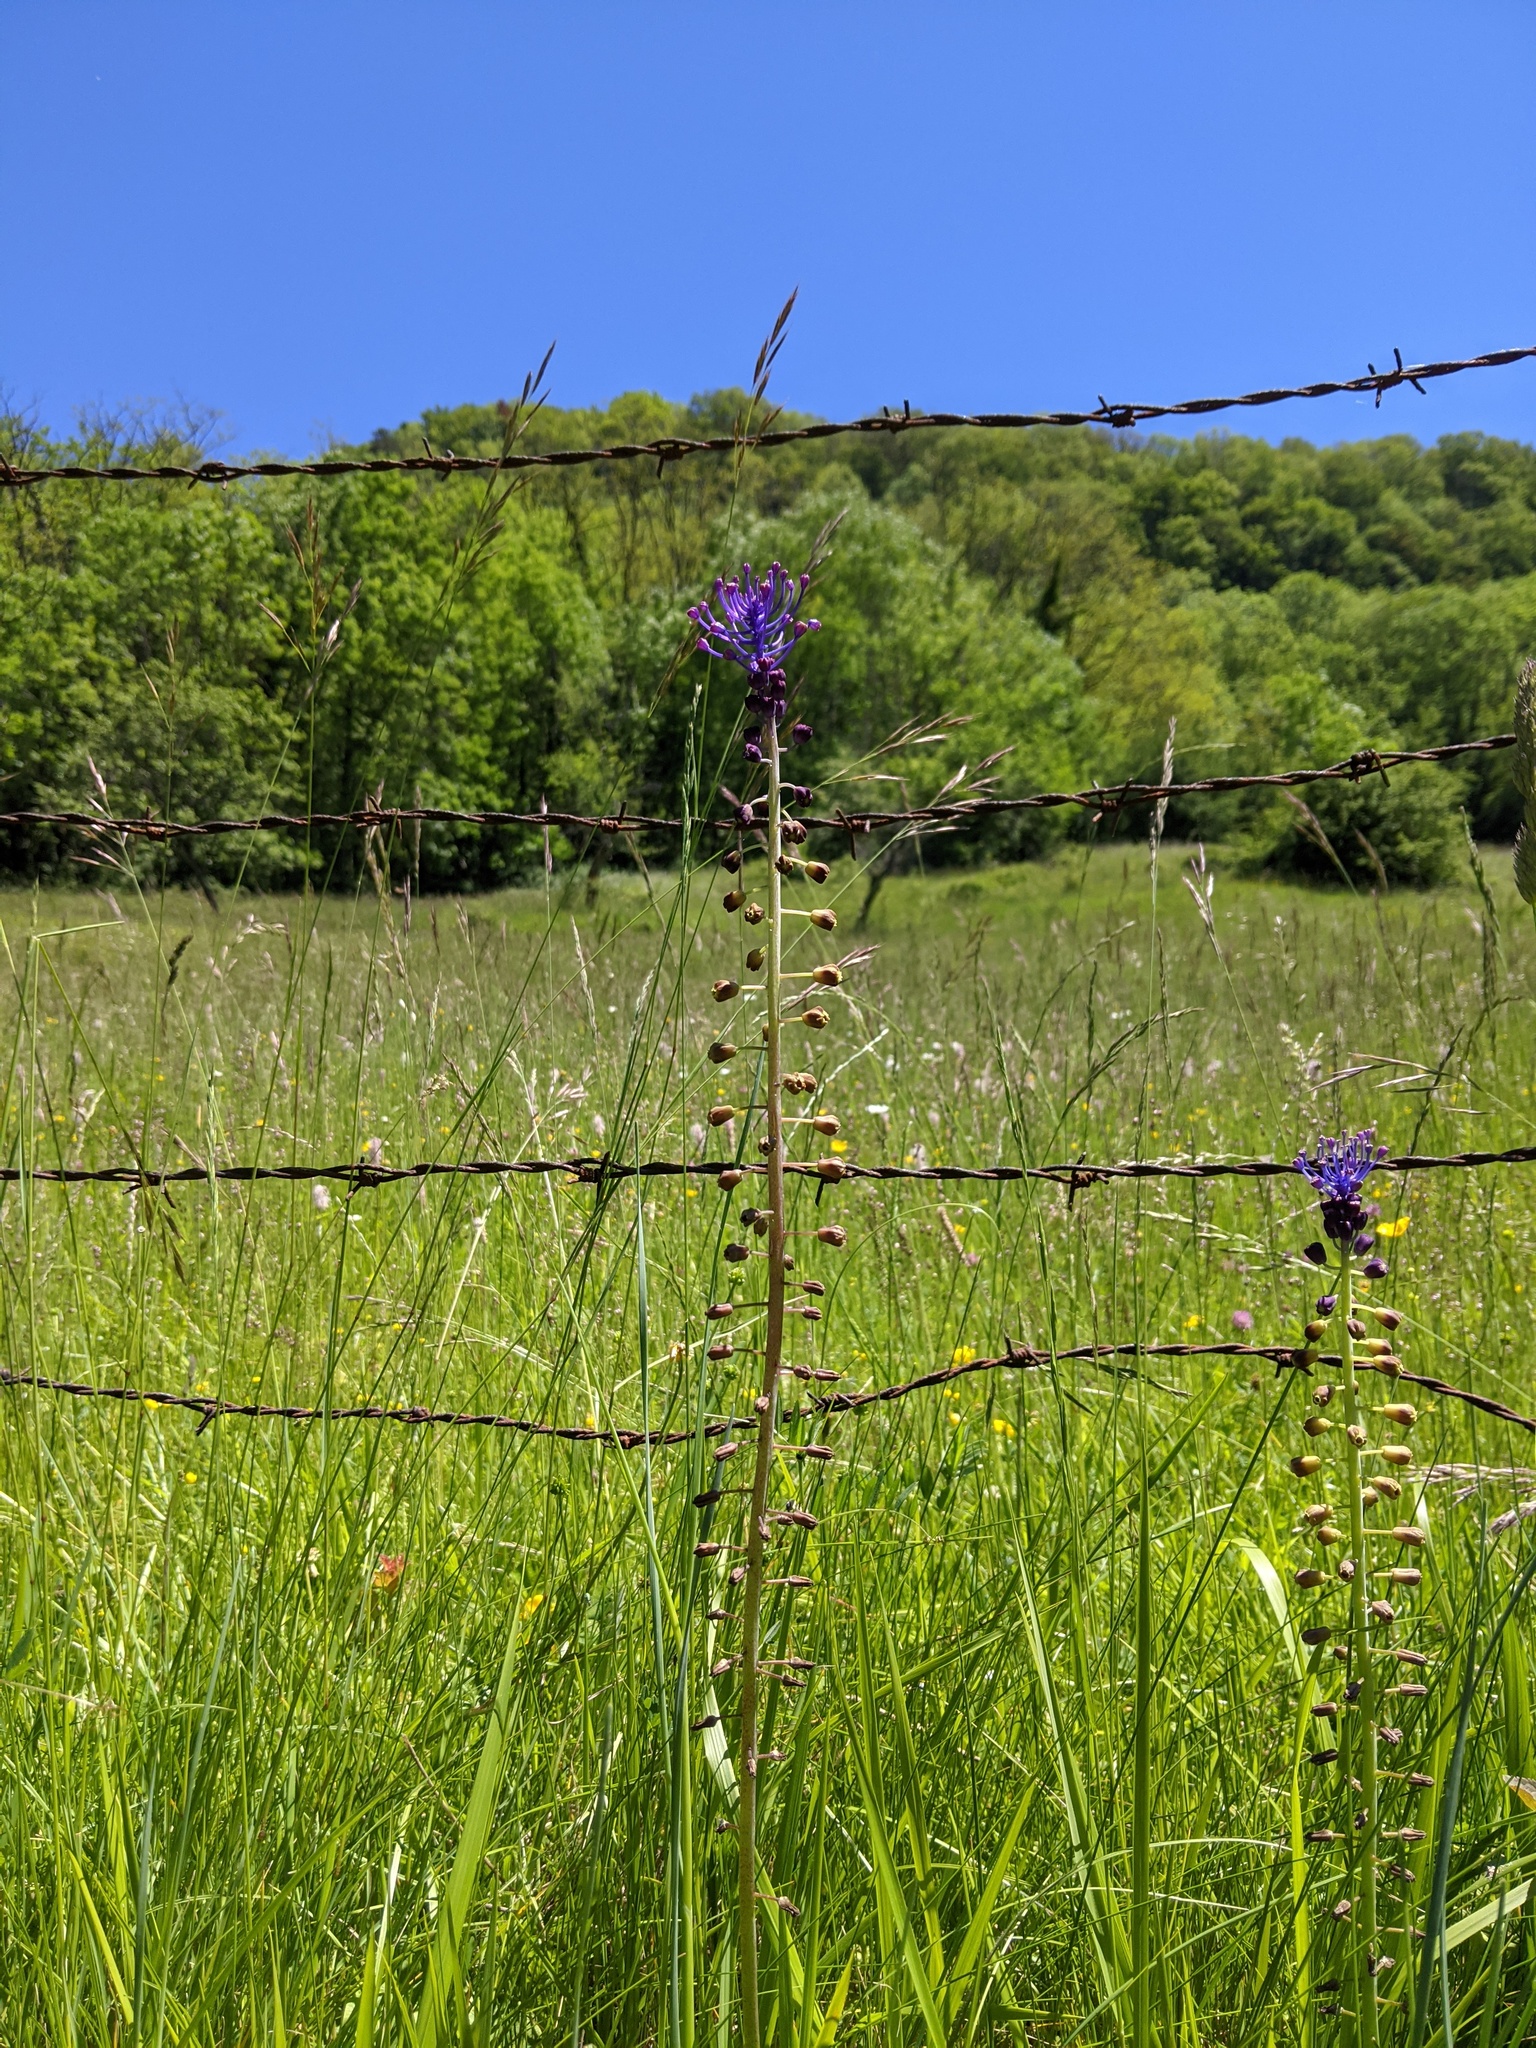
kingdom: Plantae
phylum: Tracheophyta
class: Liliopsida
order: Asparagales
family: Asparagaceae
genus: Muscari
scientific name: Muscari comosum
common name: Tassel hyacinth
